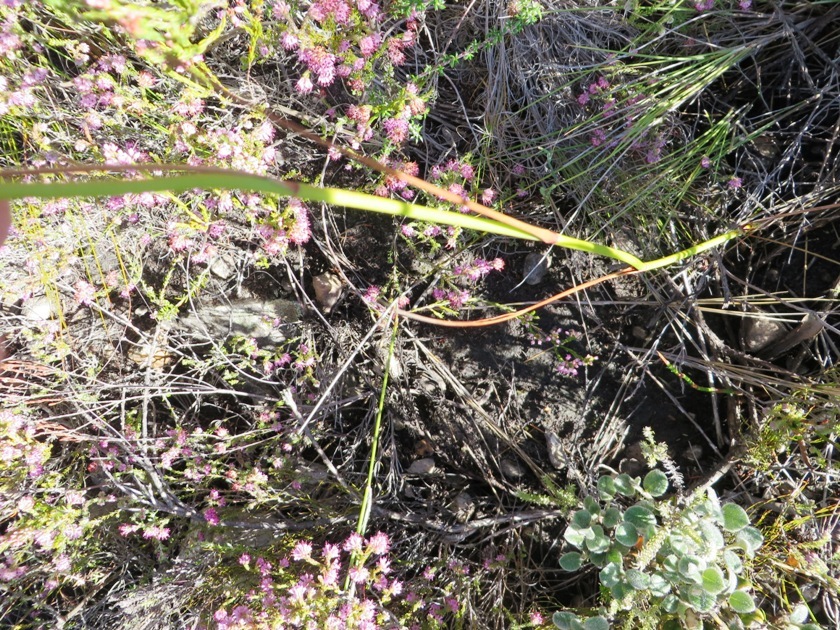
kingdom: Plantae
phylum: Tracheophyta
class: Liliopsida
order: Asparagales
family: Iridaceae
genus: Tritoniopsis
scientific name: Tritoniopsis triticea
